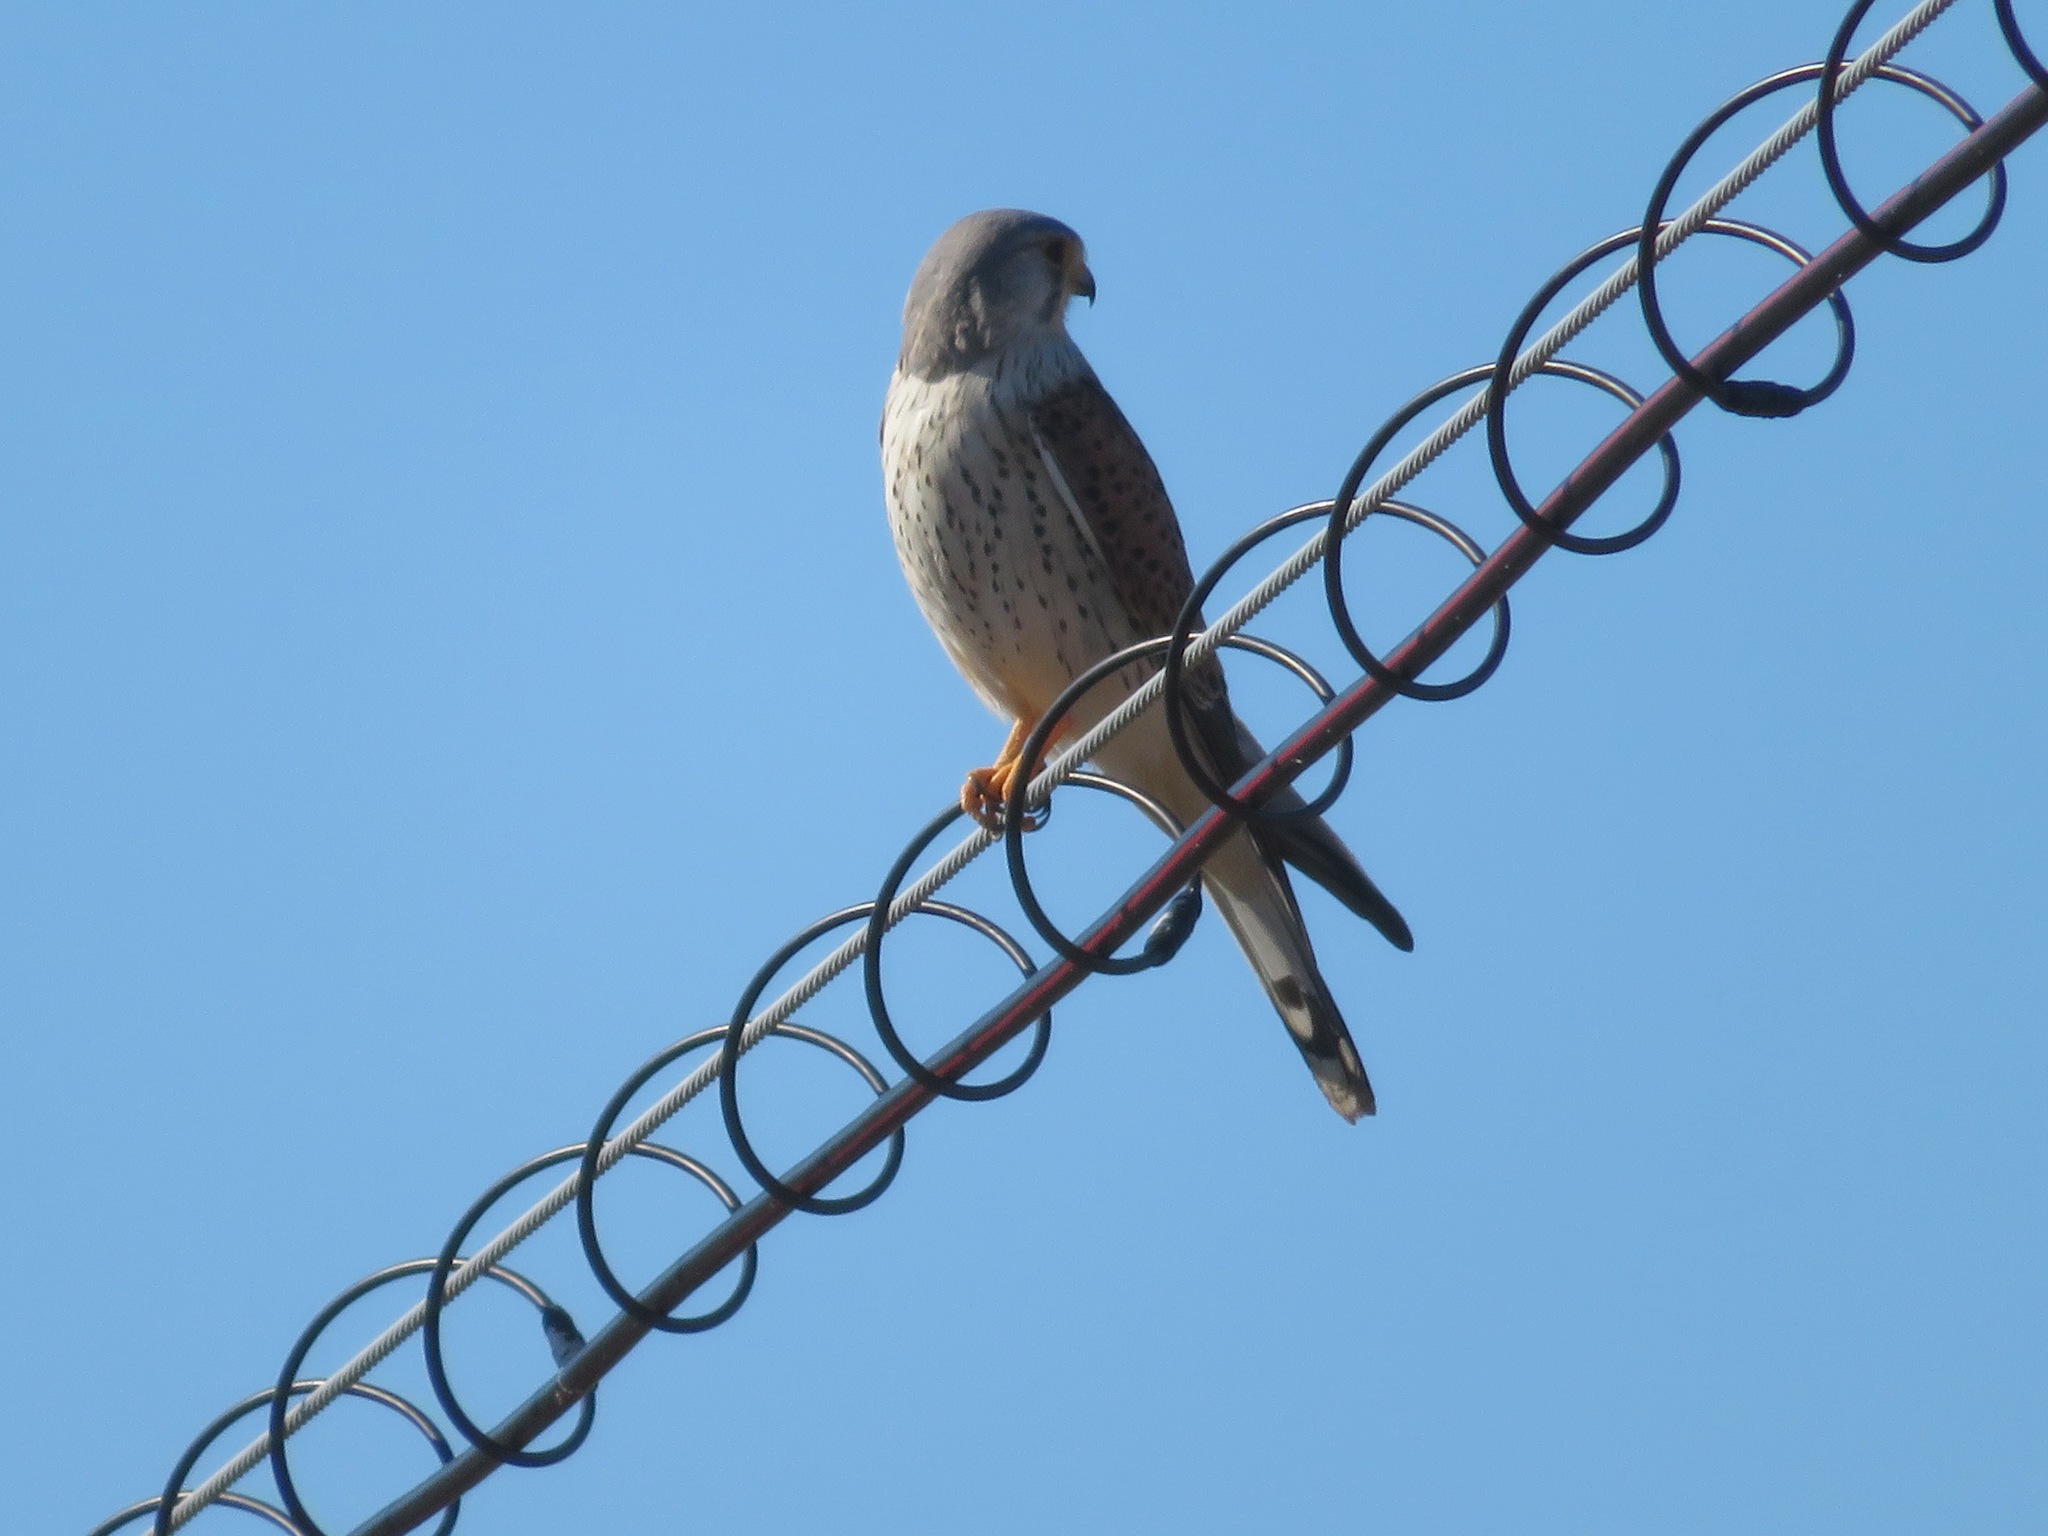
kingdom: Animalia
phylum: Chordata
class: Aves
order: Falconiformes
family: Falconidae
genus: Falco
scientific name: Falco tinnunculus
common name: Common kestrel
